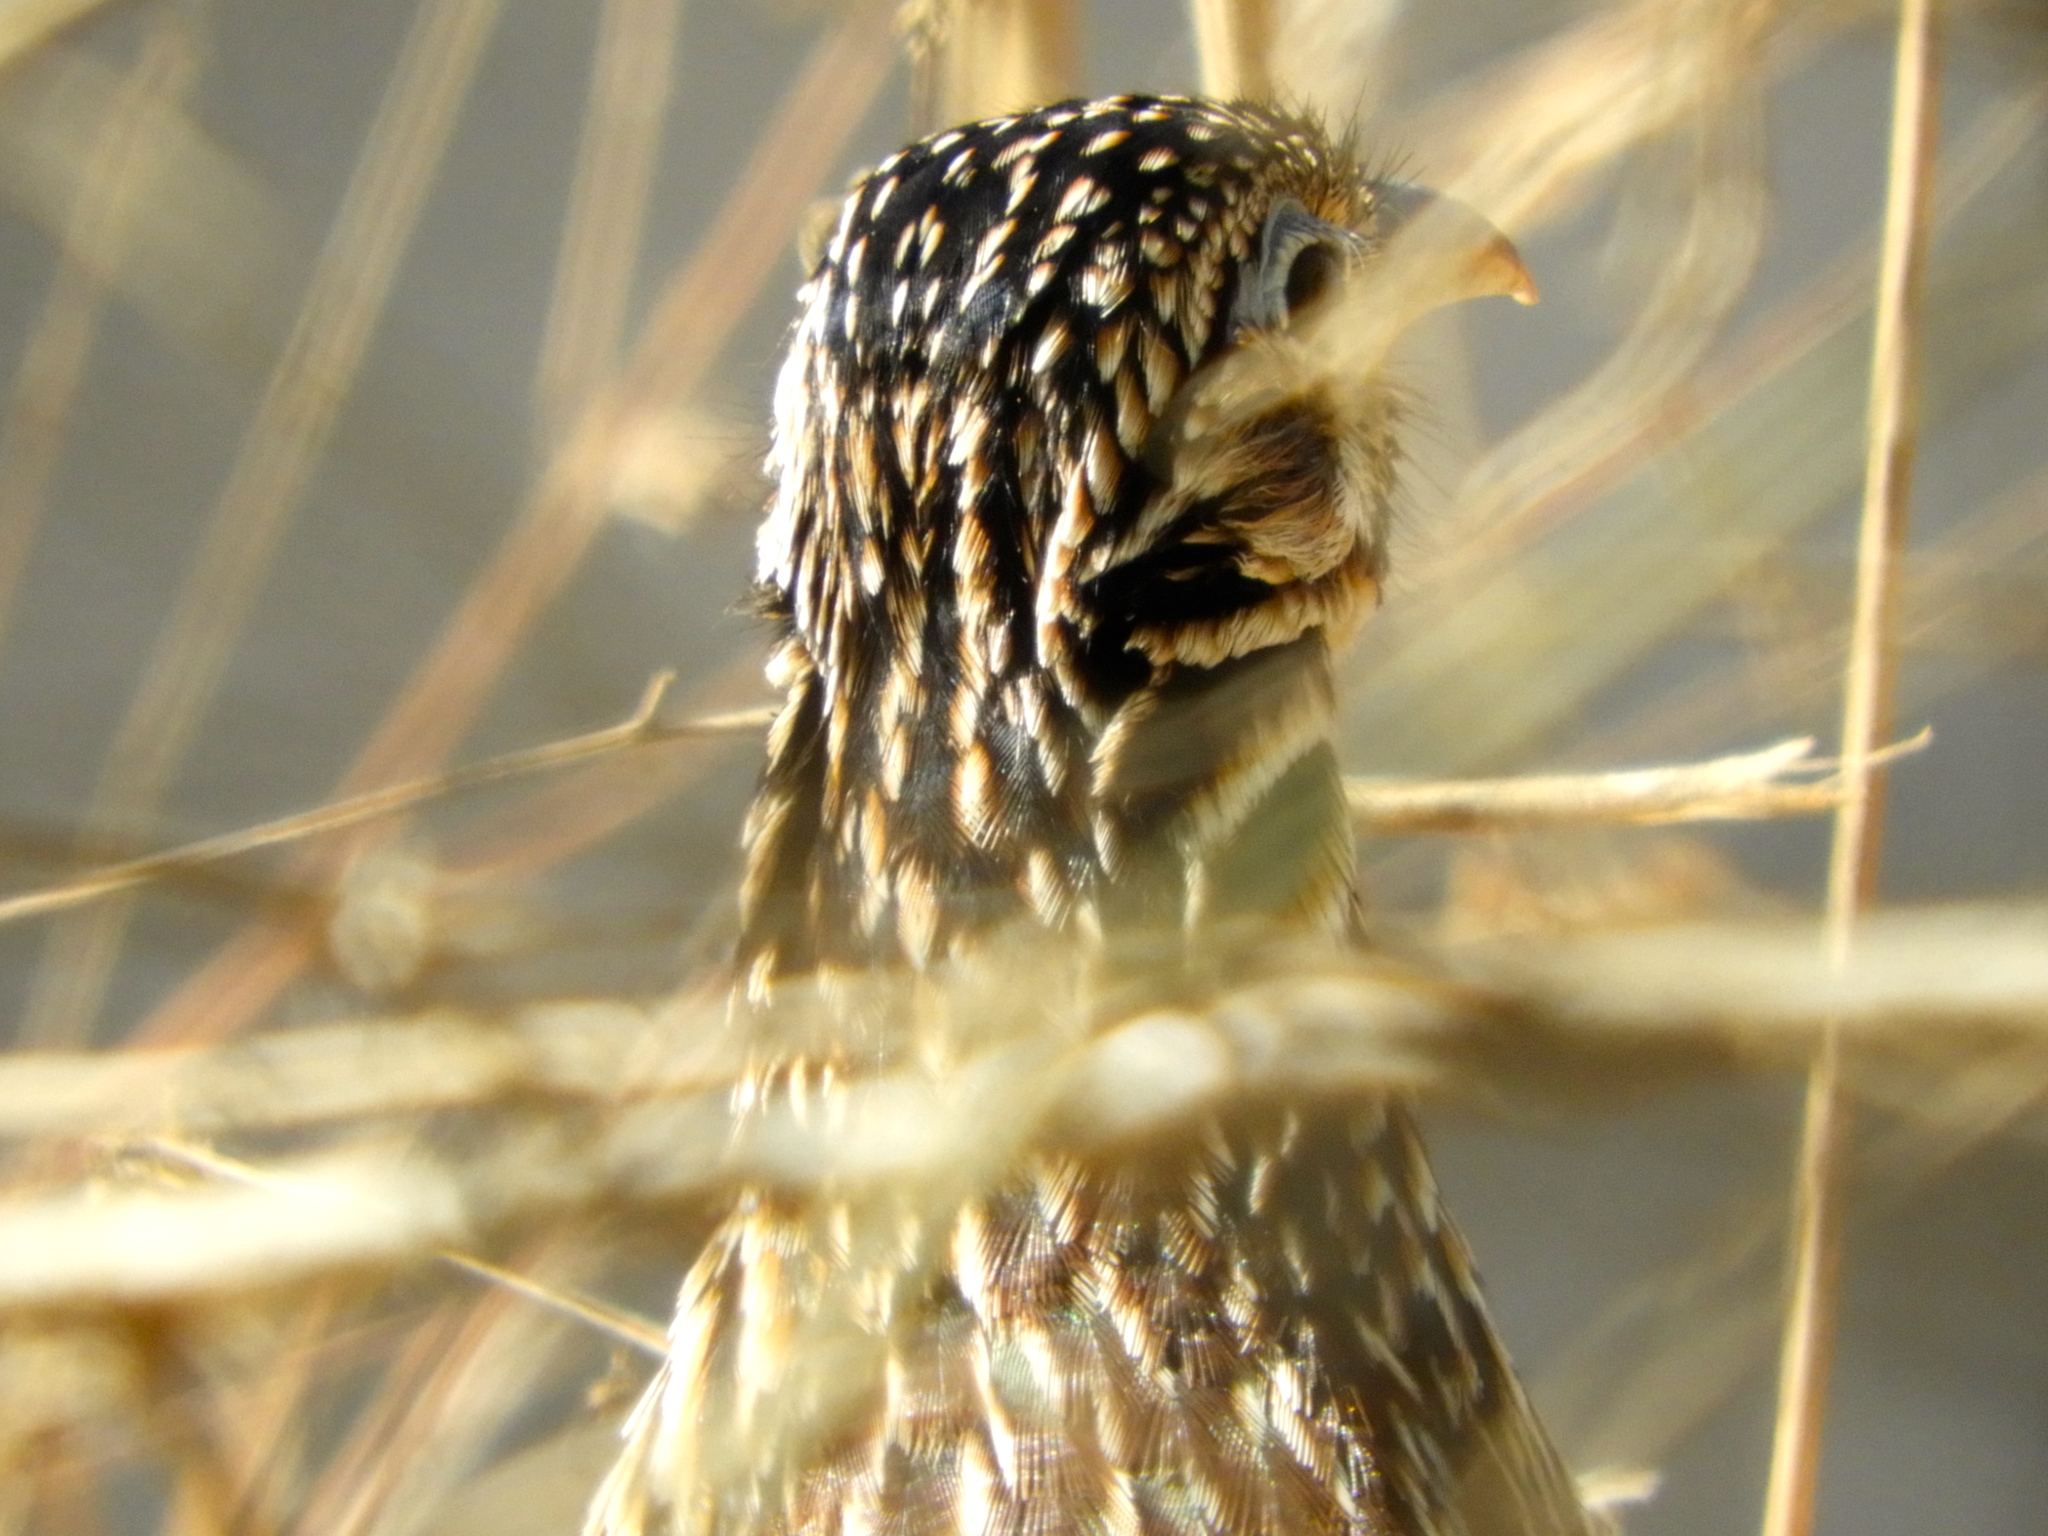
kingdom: Animalia
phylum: Chordata
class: Aves
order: Cuculiformes
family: Cuculidae
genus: Geococcyx
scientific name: Geococcyx velox
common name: Lesser roadrunner
